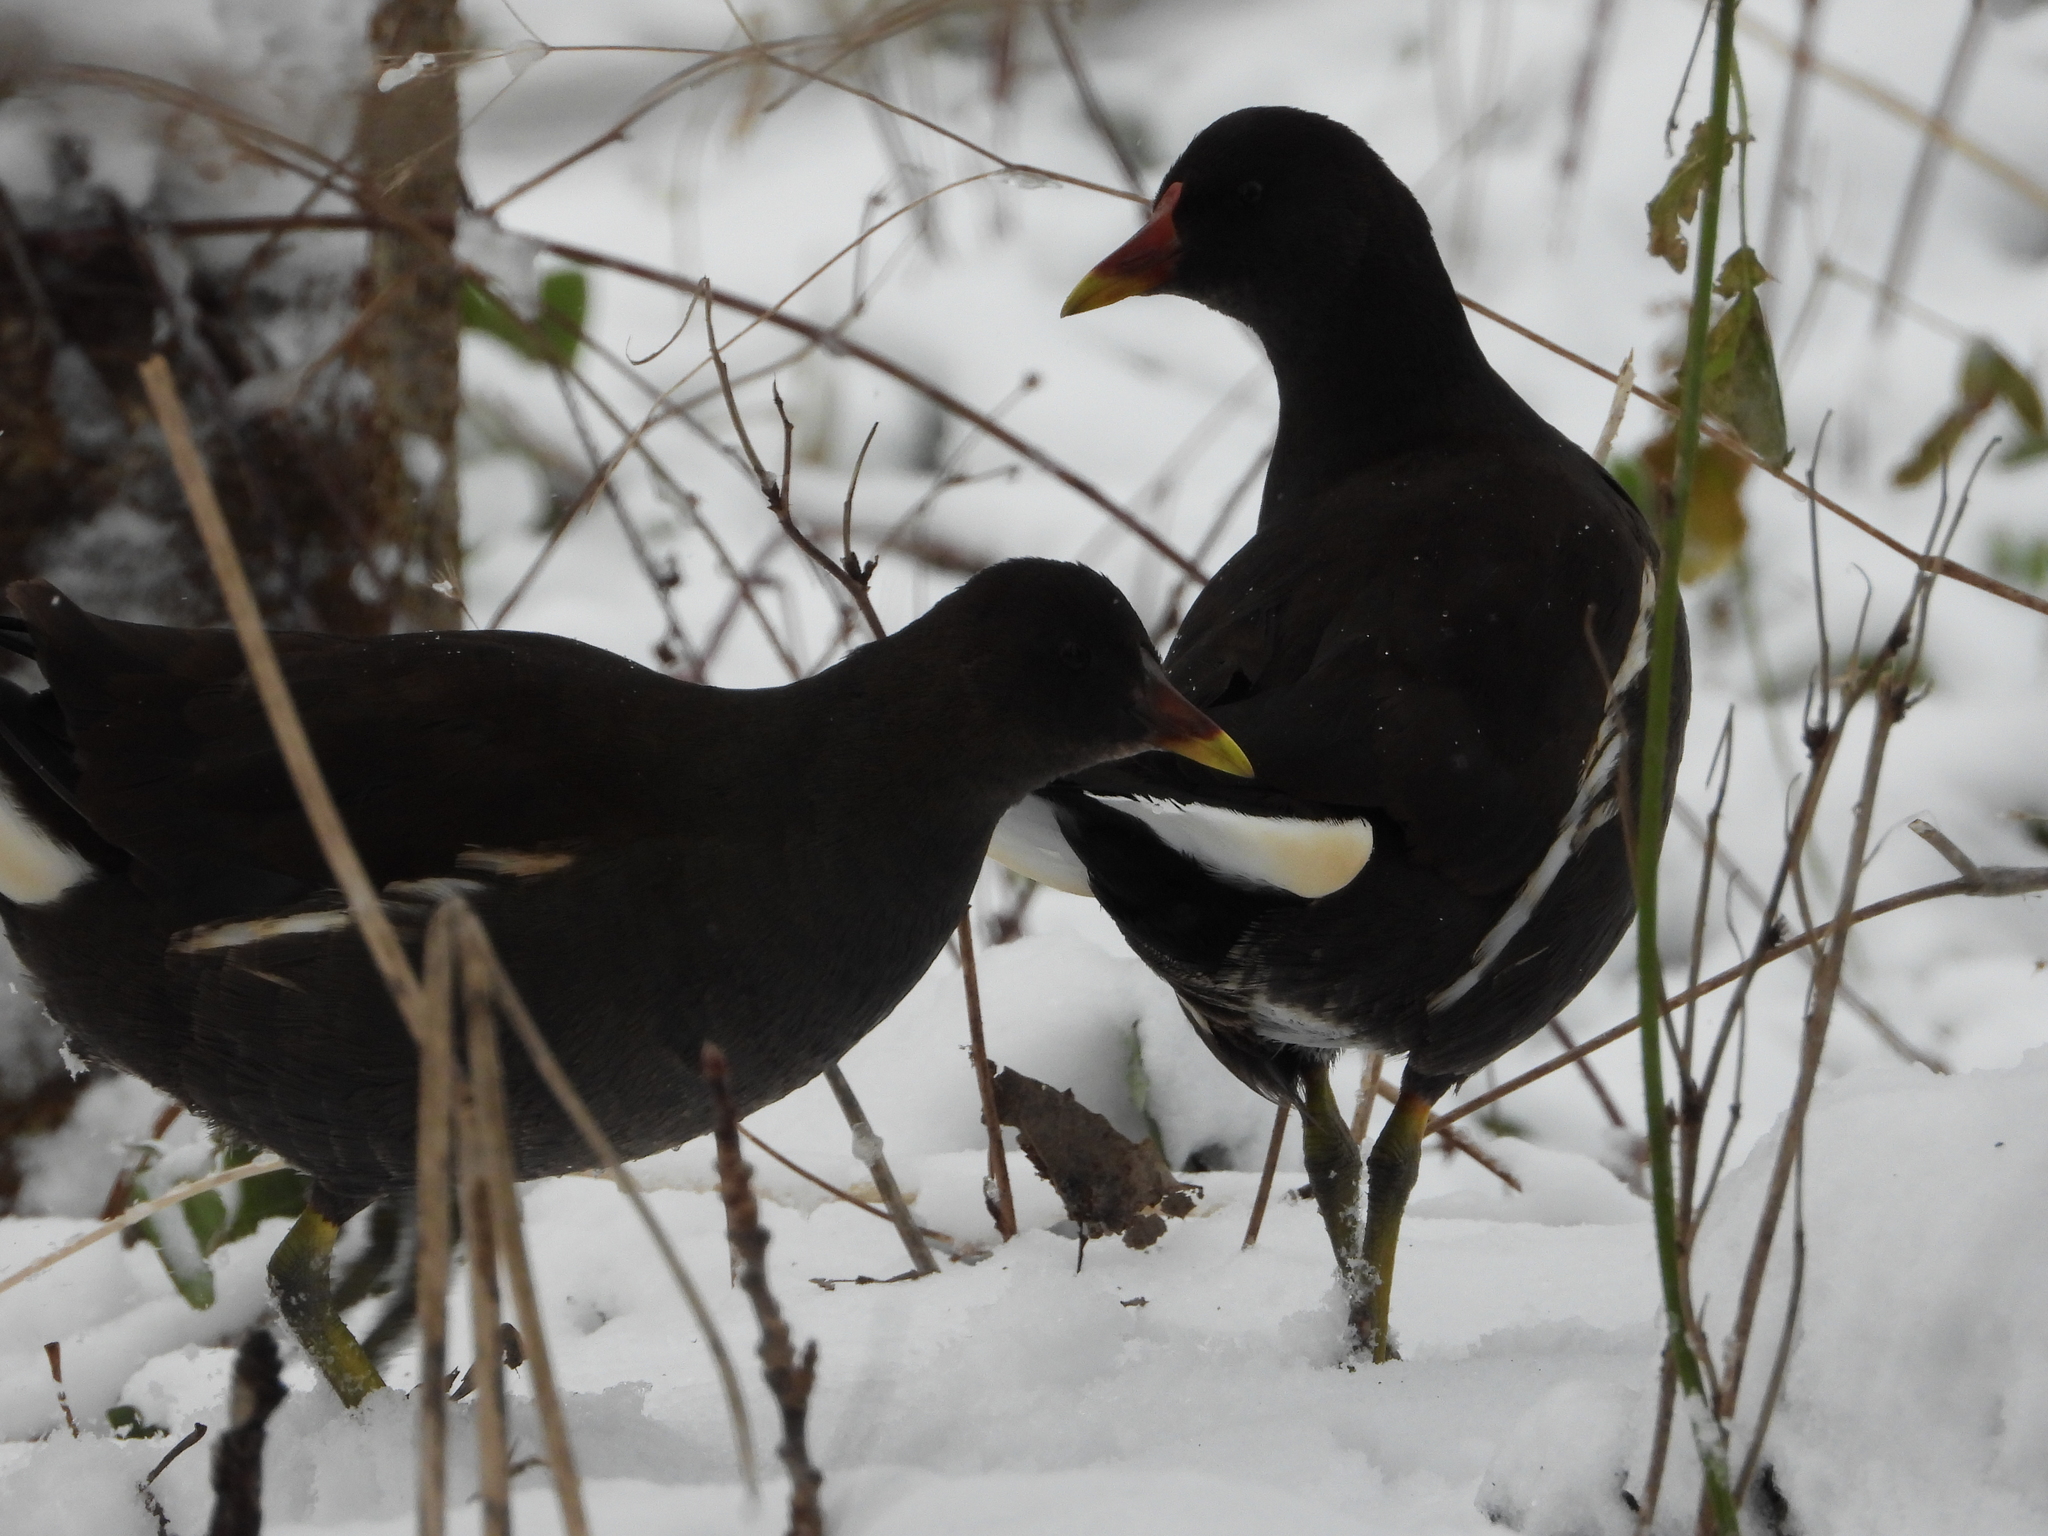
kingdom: Animalia
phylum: Chordata
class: Aves
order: Gruiformes
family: Rallidae
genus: Gallinula
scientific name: Gallinula chloropus
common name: Common moorhen
